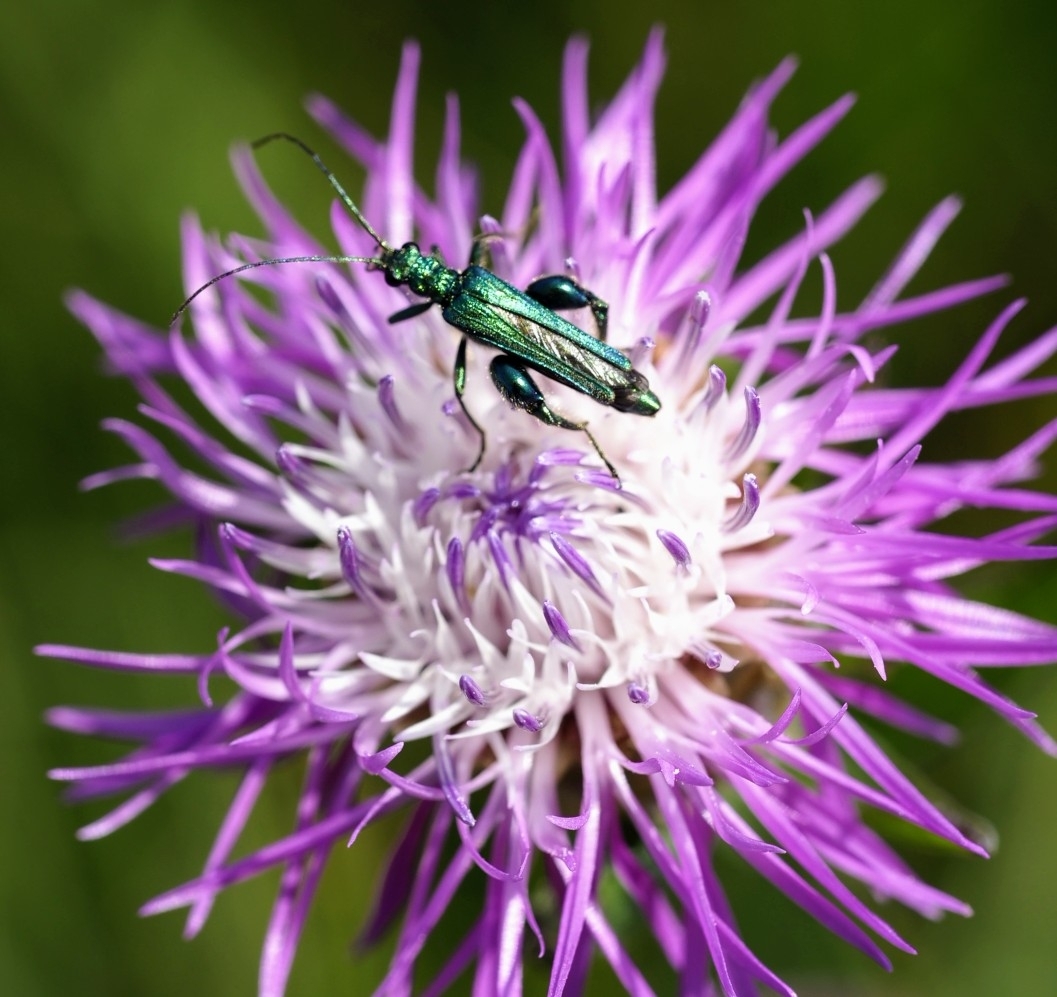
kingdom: Animalia
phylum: Arthropoda
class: Insecta
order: Coleoptera
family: Oedemeridae
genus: Oedemera
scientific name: Oedemera nobilis
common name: Swollen-thighed beetle
